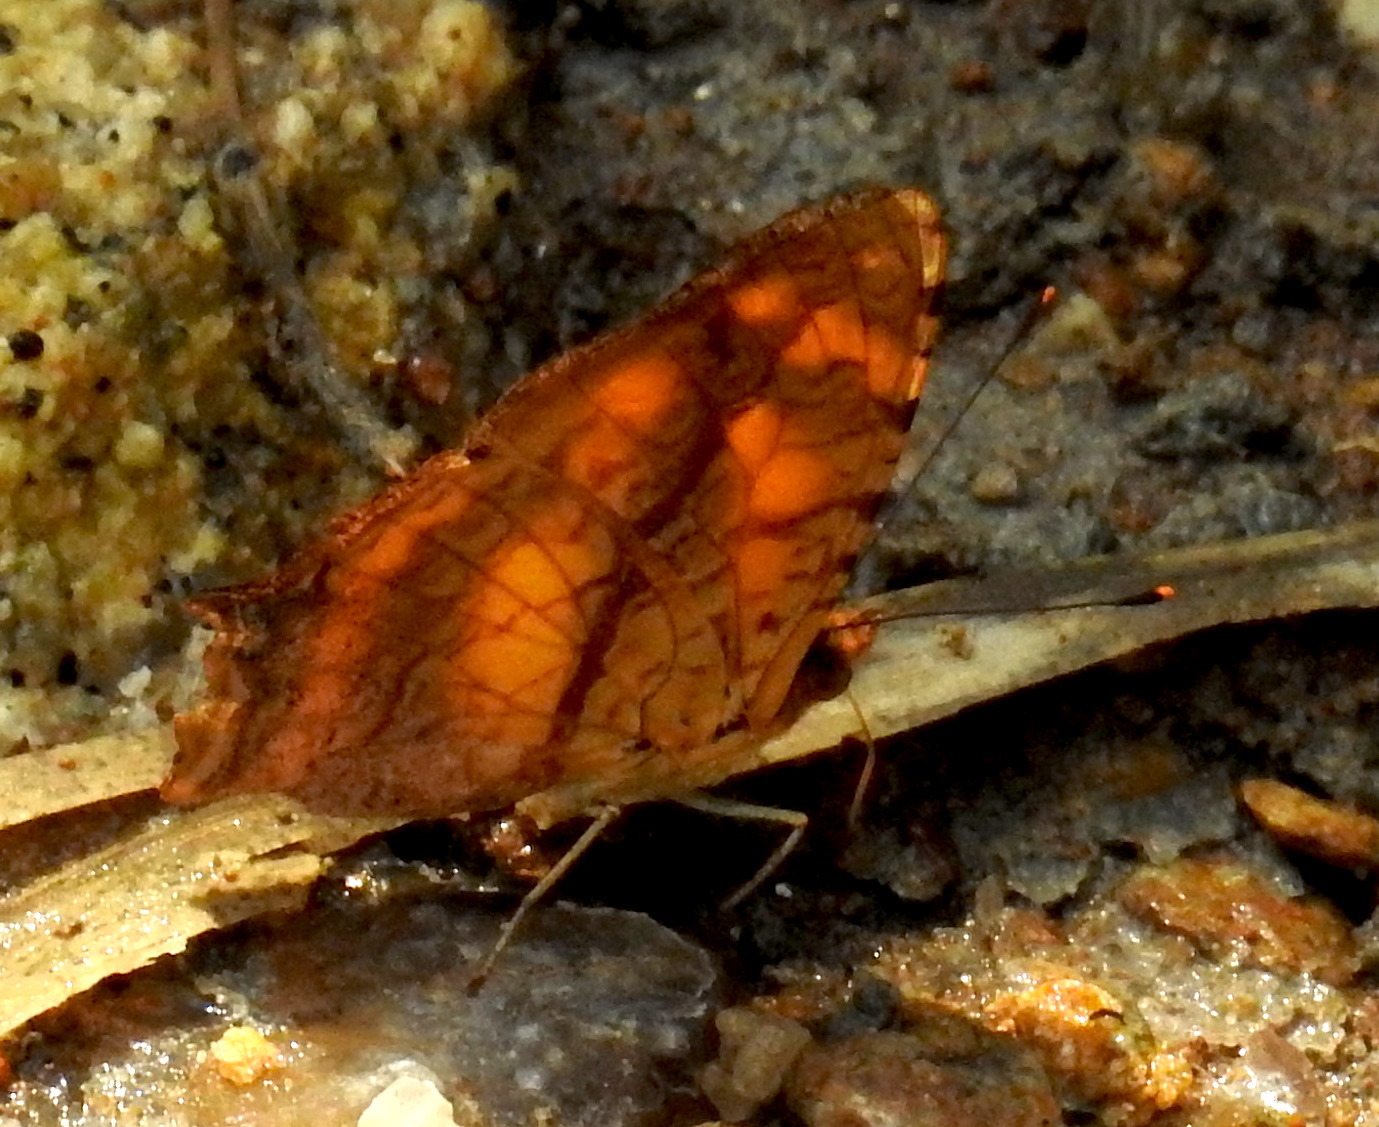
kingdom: Animalia
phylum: Arthropoda
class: Insecta
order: Lepidoptera
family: Nymphalidae
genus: Symbrenthia
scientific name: Symbrenthia hypselis
